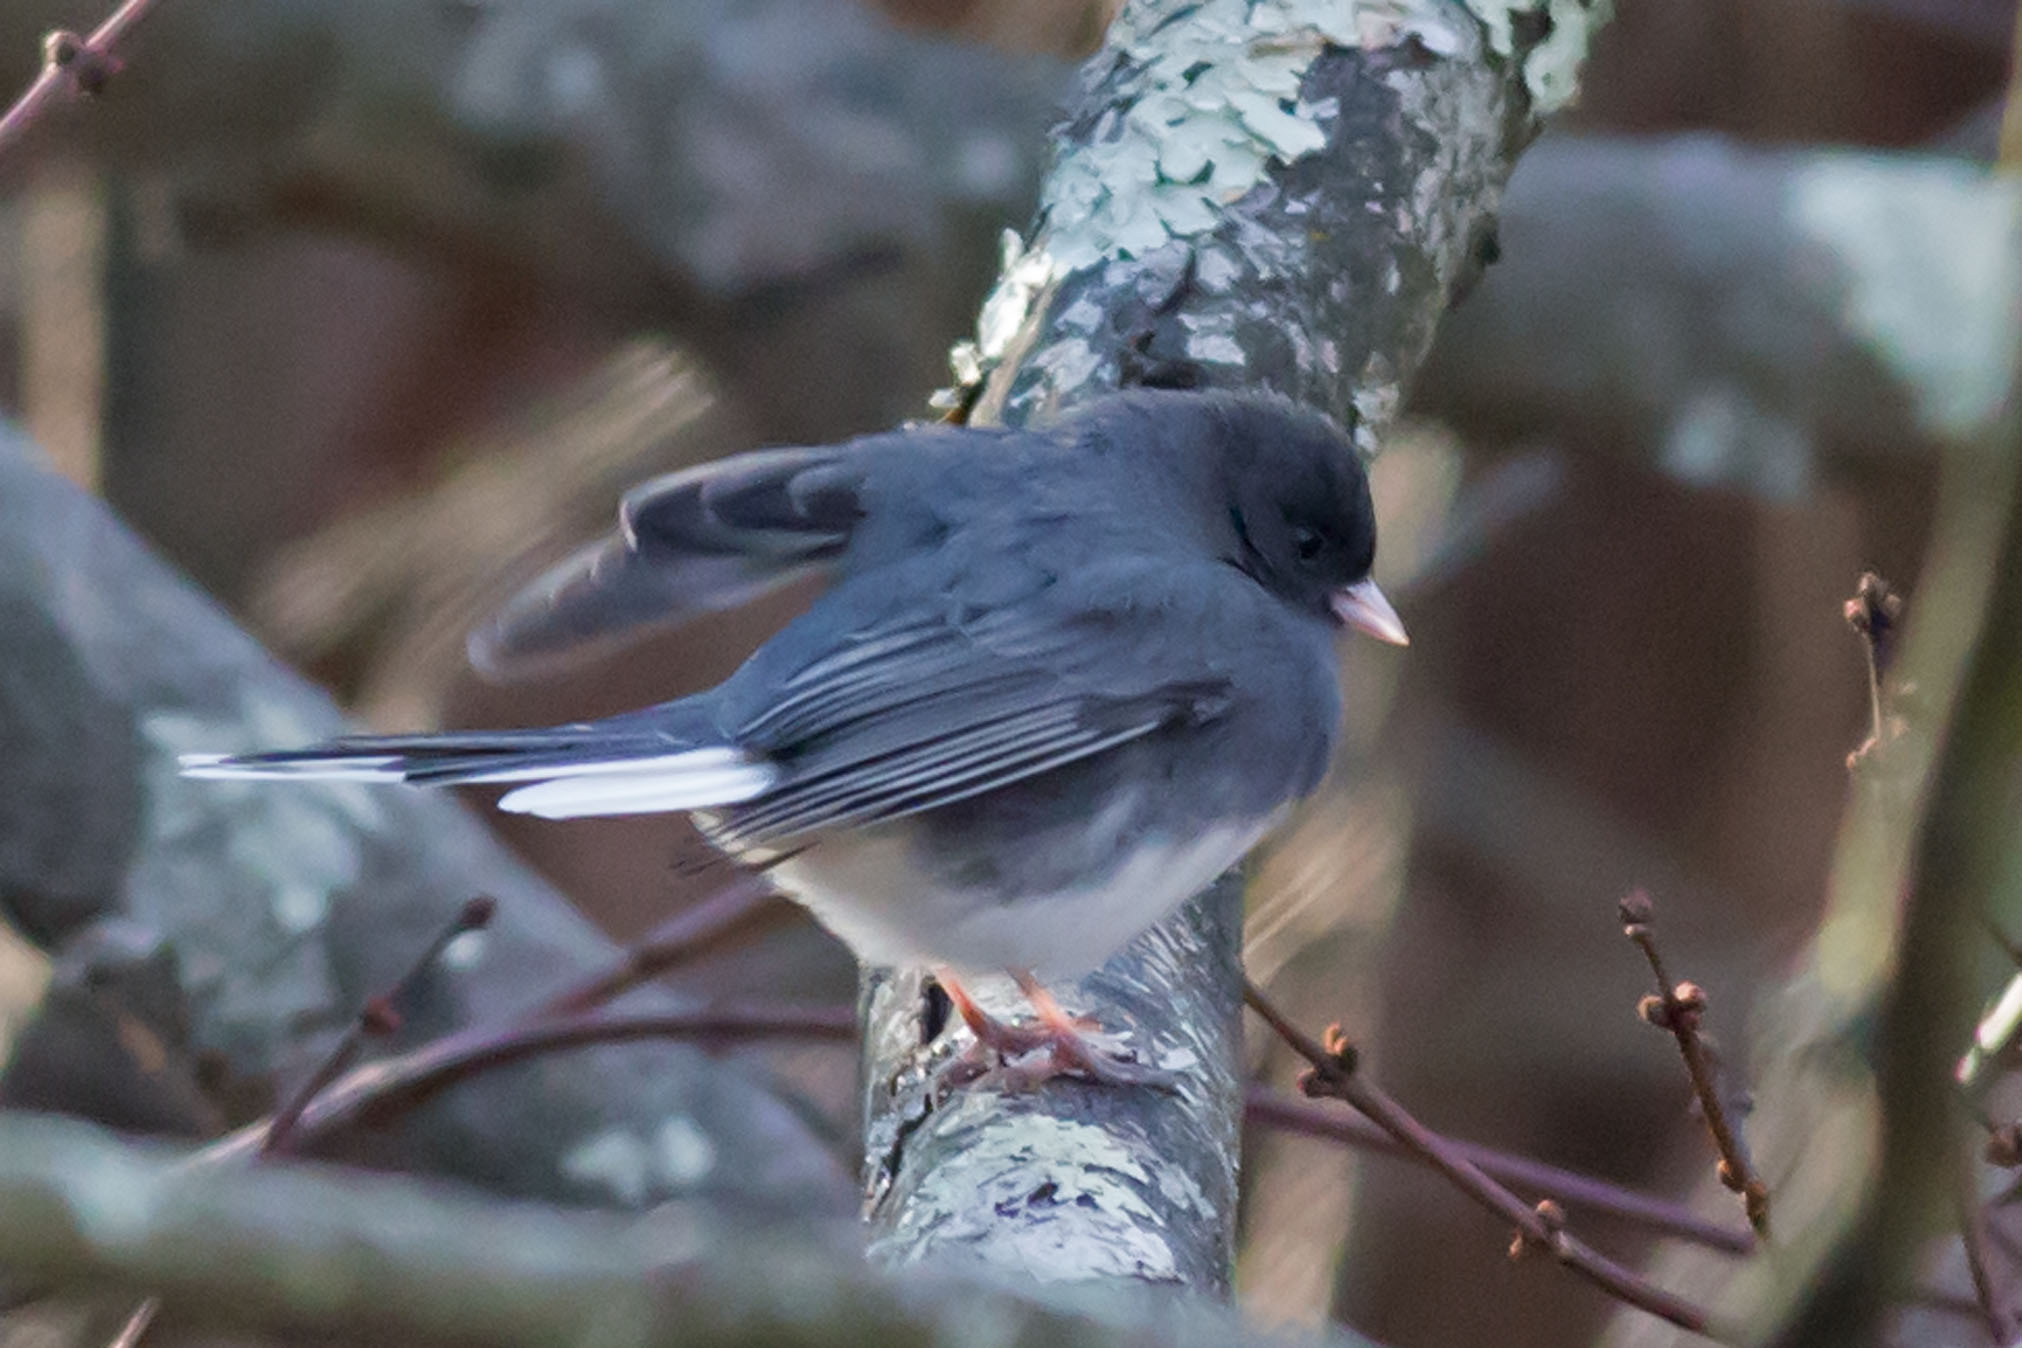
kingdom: Animalia
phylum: Chordata
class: Aves
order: Passeriformes
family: Passerellidae
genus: Junco
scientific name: Junco hyemalis
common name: Dark-eyed junco
